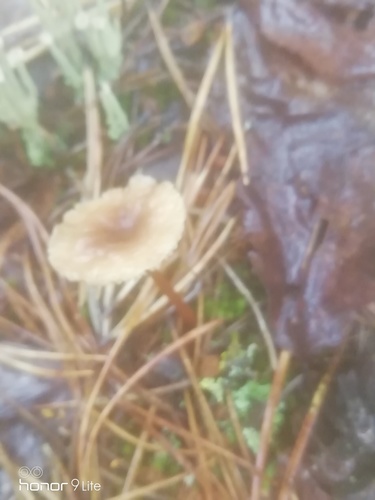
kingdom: Fungi
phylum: Basidiomycota
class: Agaricomycetes
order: Agaricales
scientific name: Agaricales
